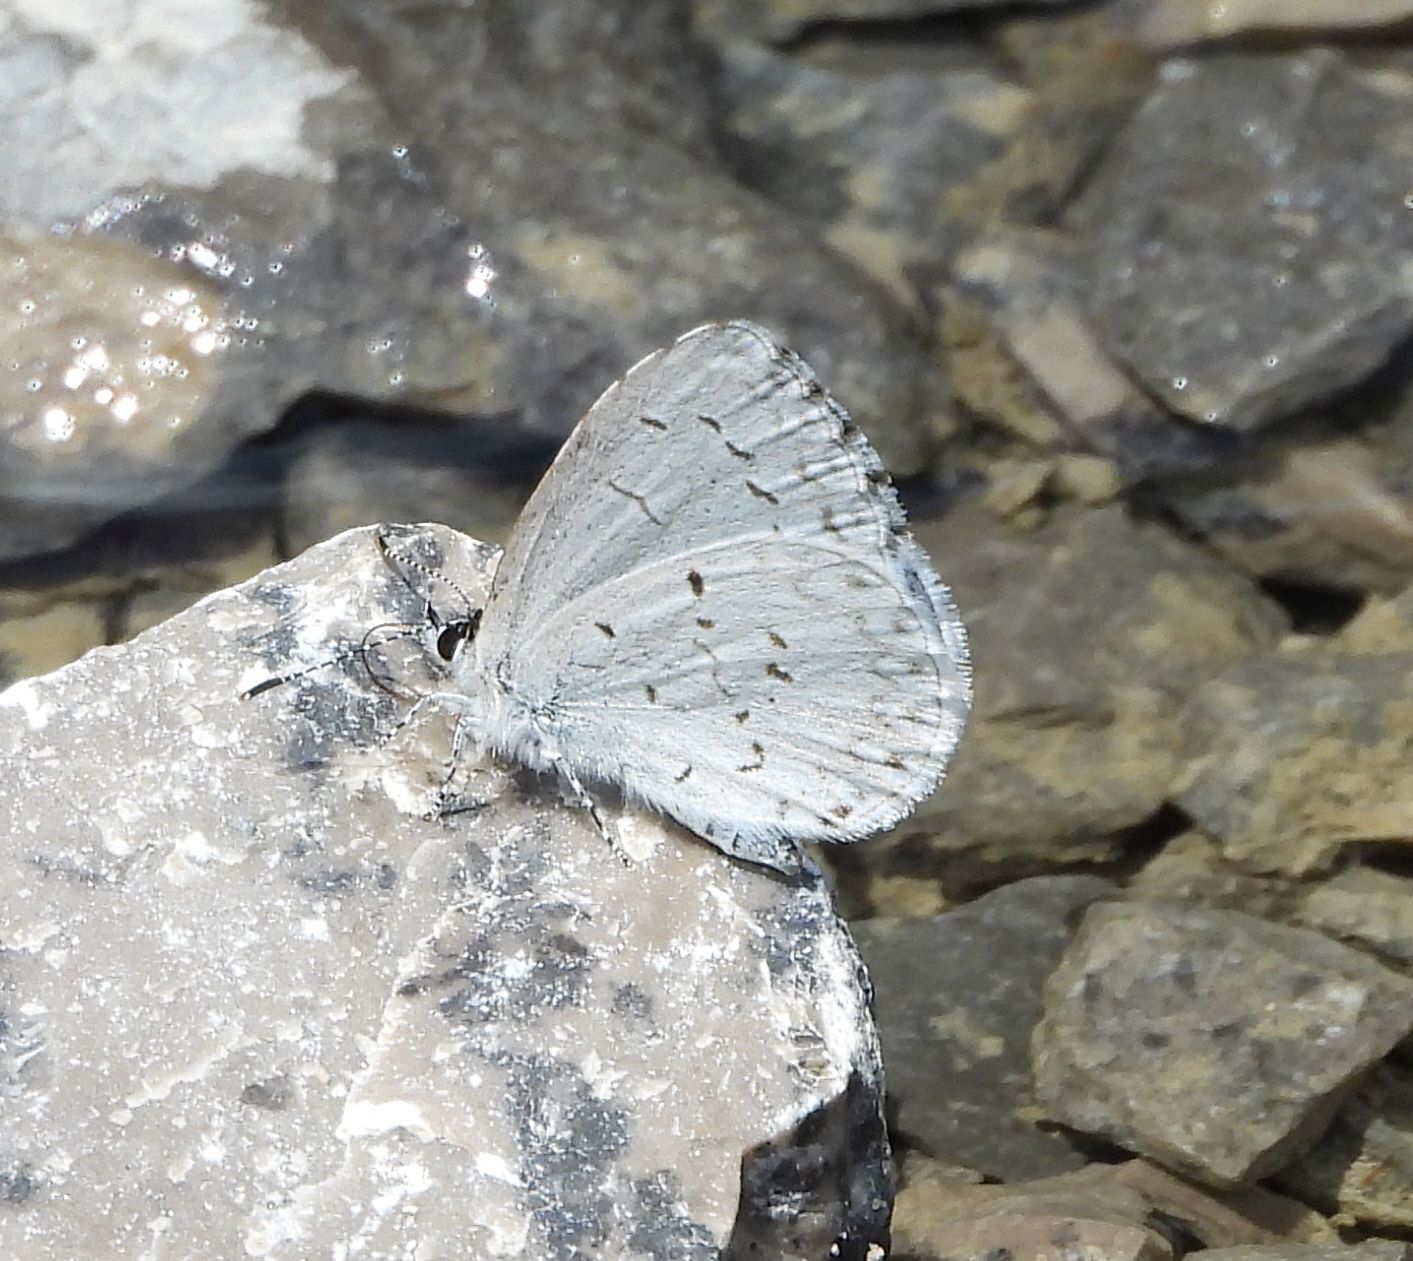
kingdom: Animalia
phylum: Arthropoda
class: Insecta
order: Lepidoptera
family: Lycaenidae
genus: Celastrina
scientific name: Celastrina
